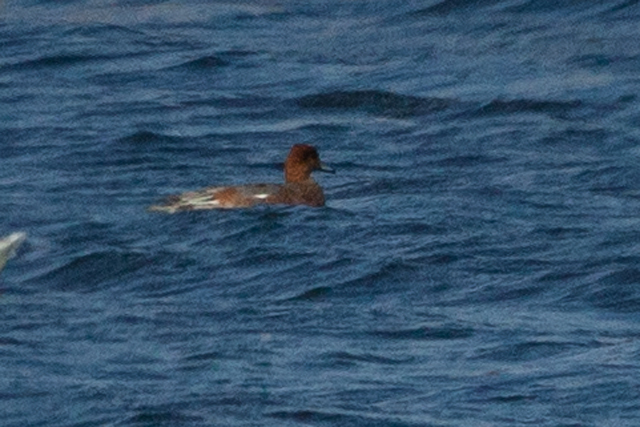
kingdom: Animalia
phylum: Chordata
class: Aves
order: Anseriformes
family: Anatidae
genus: Mareca
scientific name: Mareca penelope
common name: Eurasian wigeon
